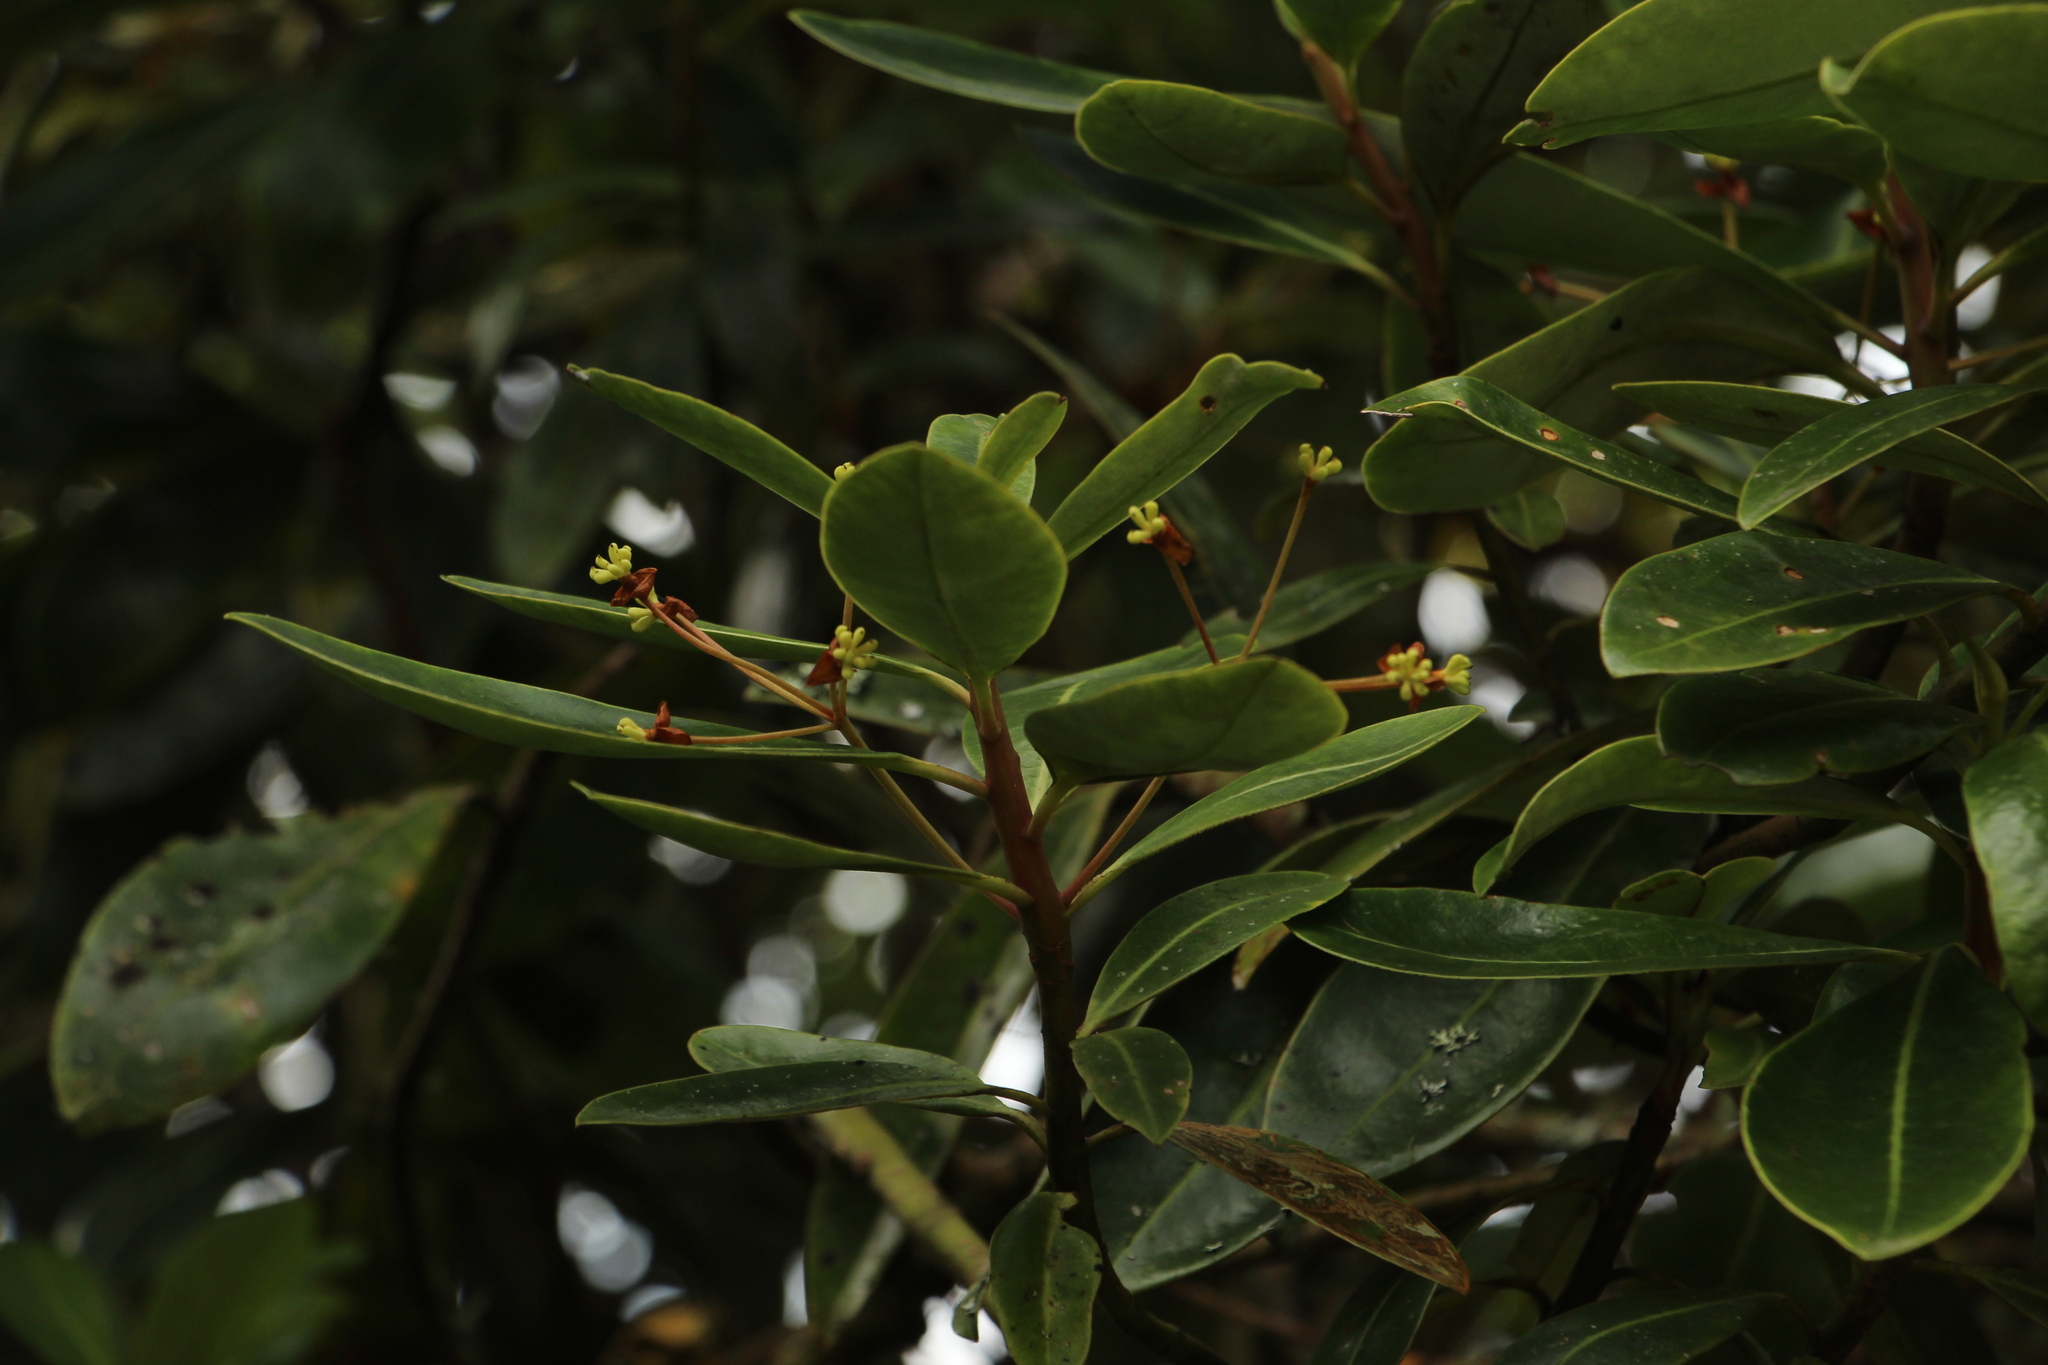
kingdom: Plantae
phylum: Tracheophyta
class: Magnoliopsida
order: Canellales
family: Winteraceae
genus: Drimys
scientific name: Drimys granadensis
